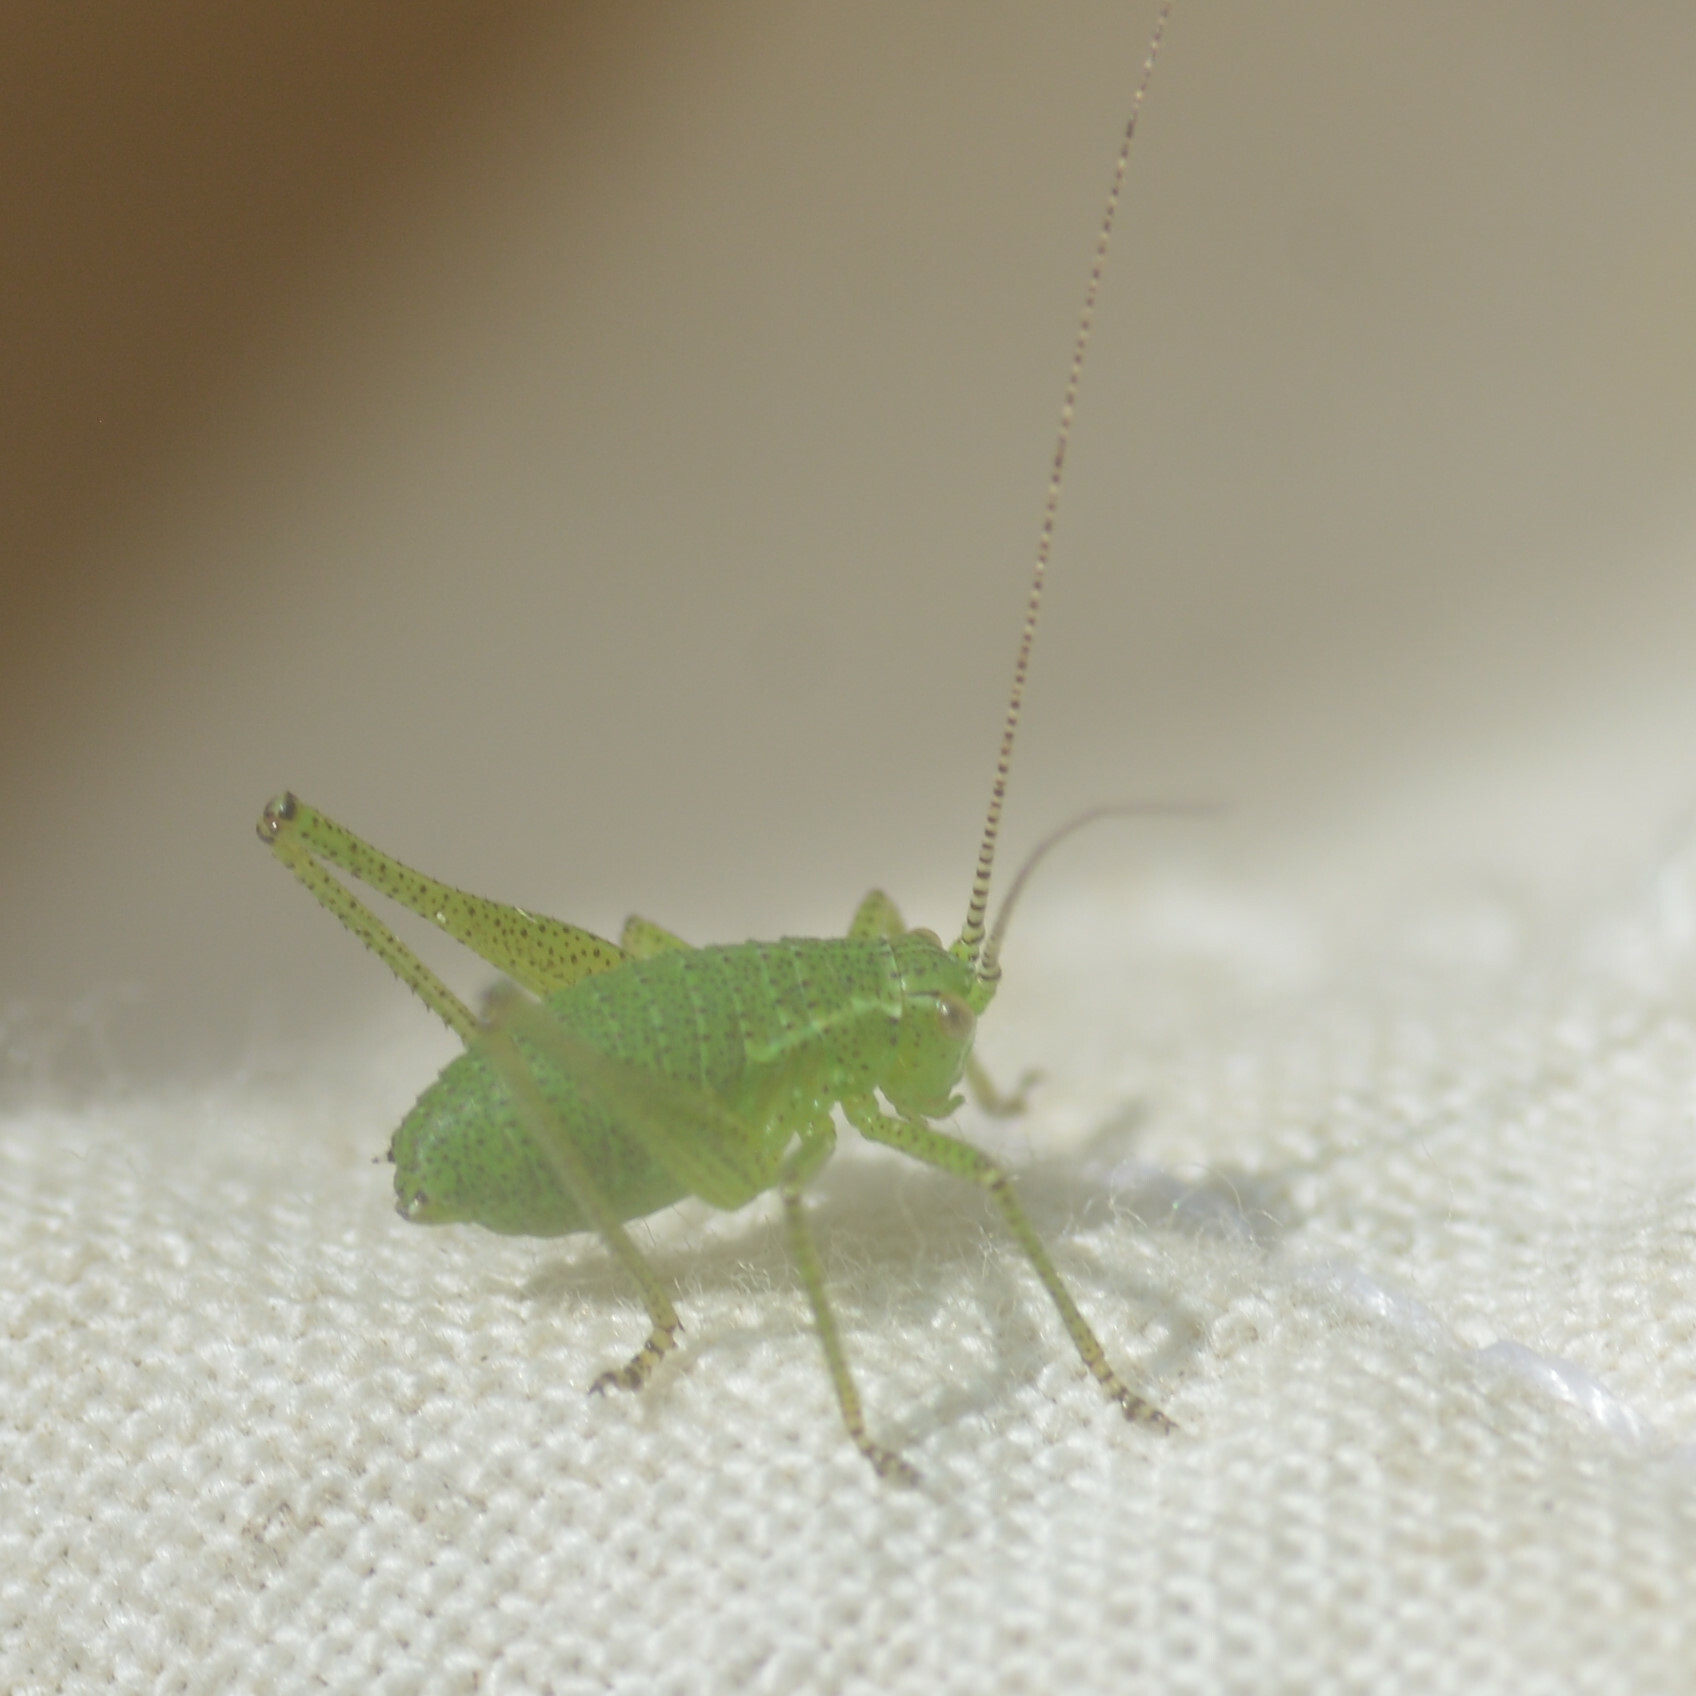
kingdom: Animalia
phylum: Arthropoda
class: Insecta
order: Orthoptera
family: Tettigoniidae
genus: Leptophyes
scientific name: Leptophyes punctatissima
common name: Speckled bush-cricket
